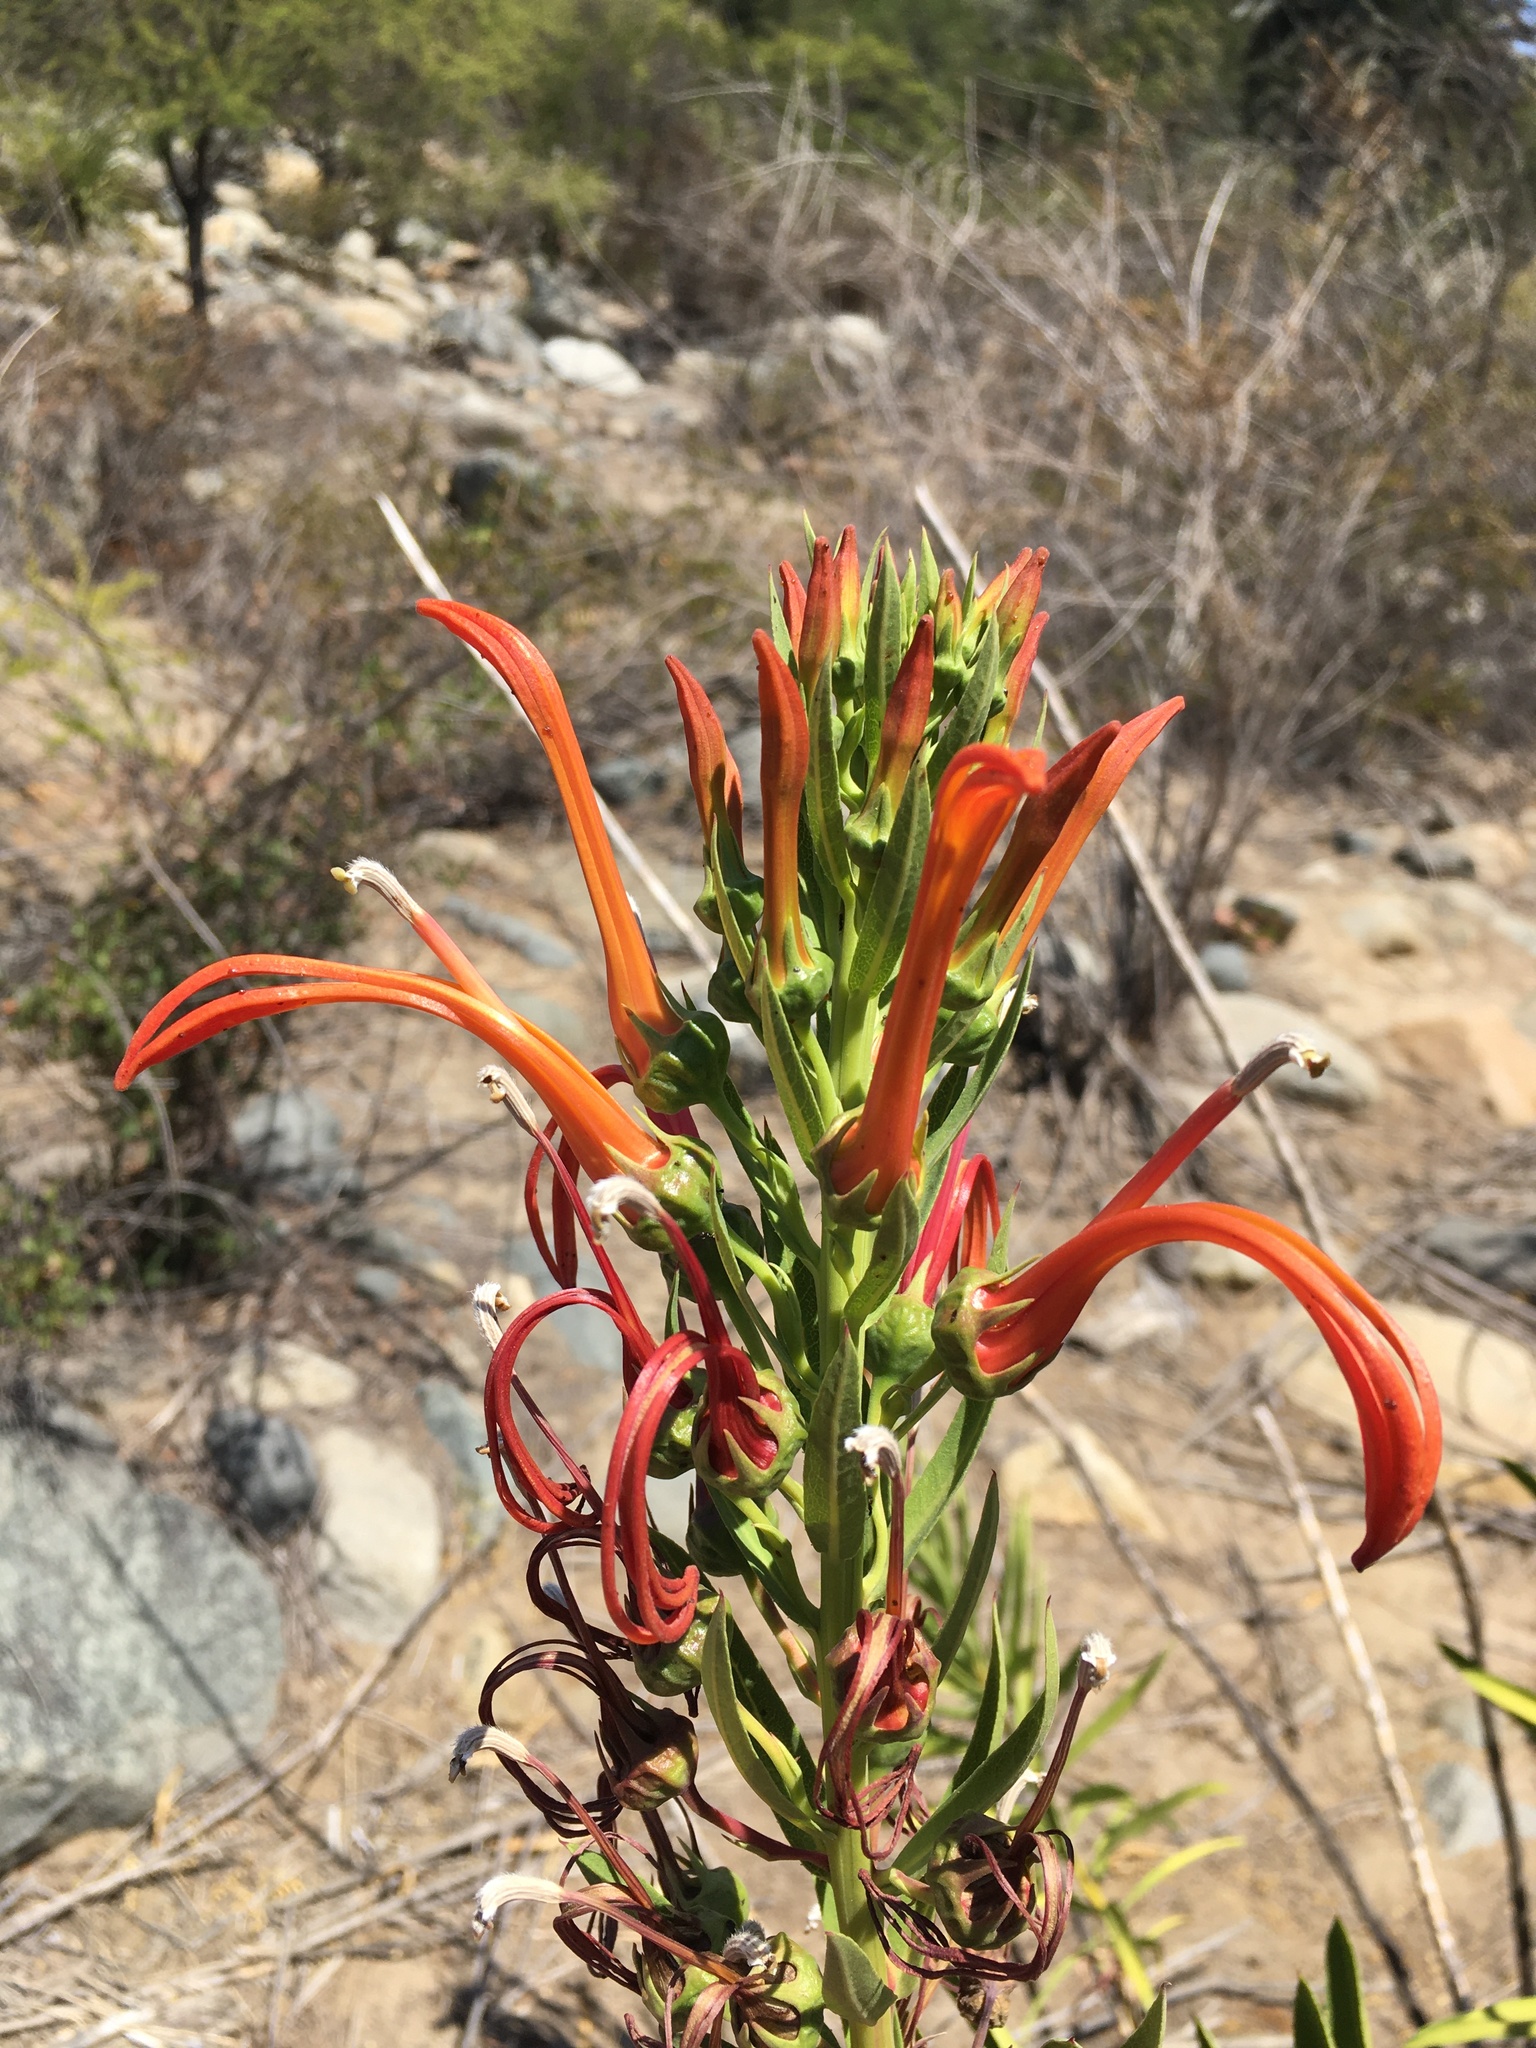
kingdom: Plantae
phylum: Tracheophyta
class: Magnoliopsida
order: Asterales
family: Campanulaceae
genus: Lobelia
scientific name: Lobelia excelsa
